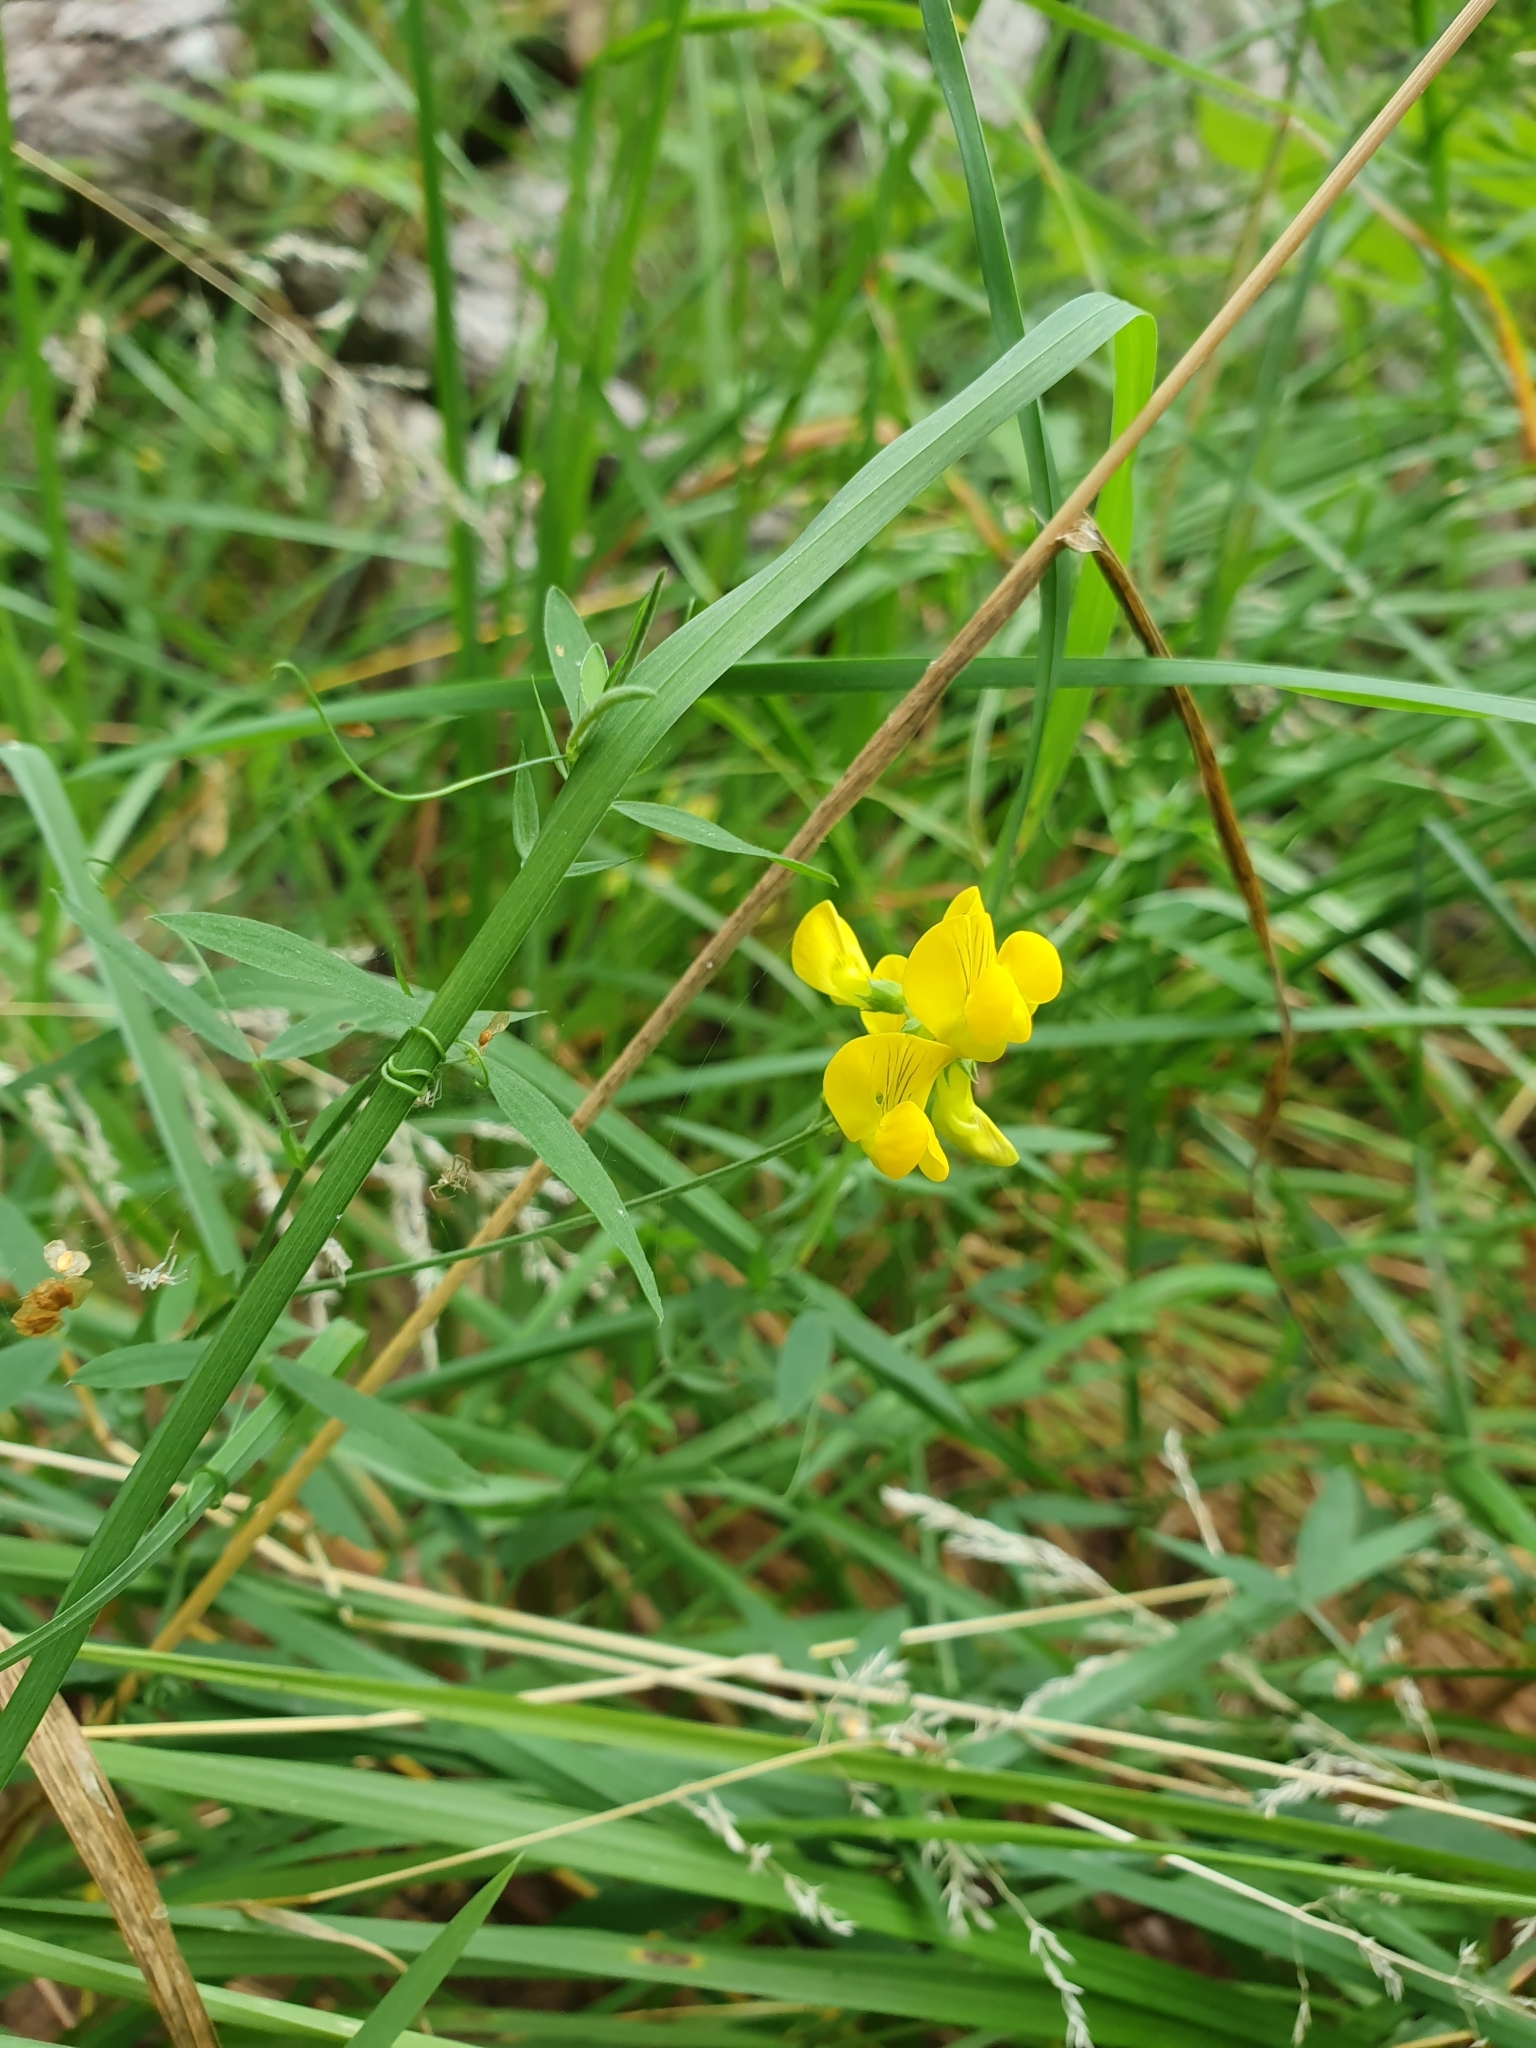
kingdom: Plantae
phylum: Tracheophyta
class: Magnoliopsida
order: Fabales
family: Fabaceae
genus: Lathyrus
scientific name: Lathyrus pratensis
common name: Meadow vetchling
